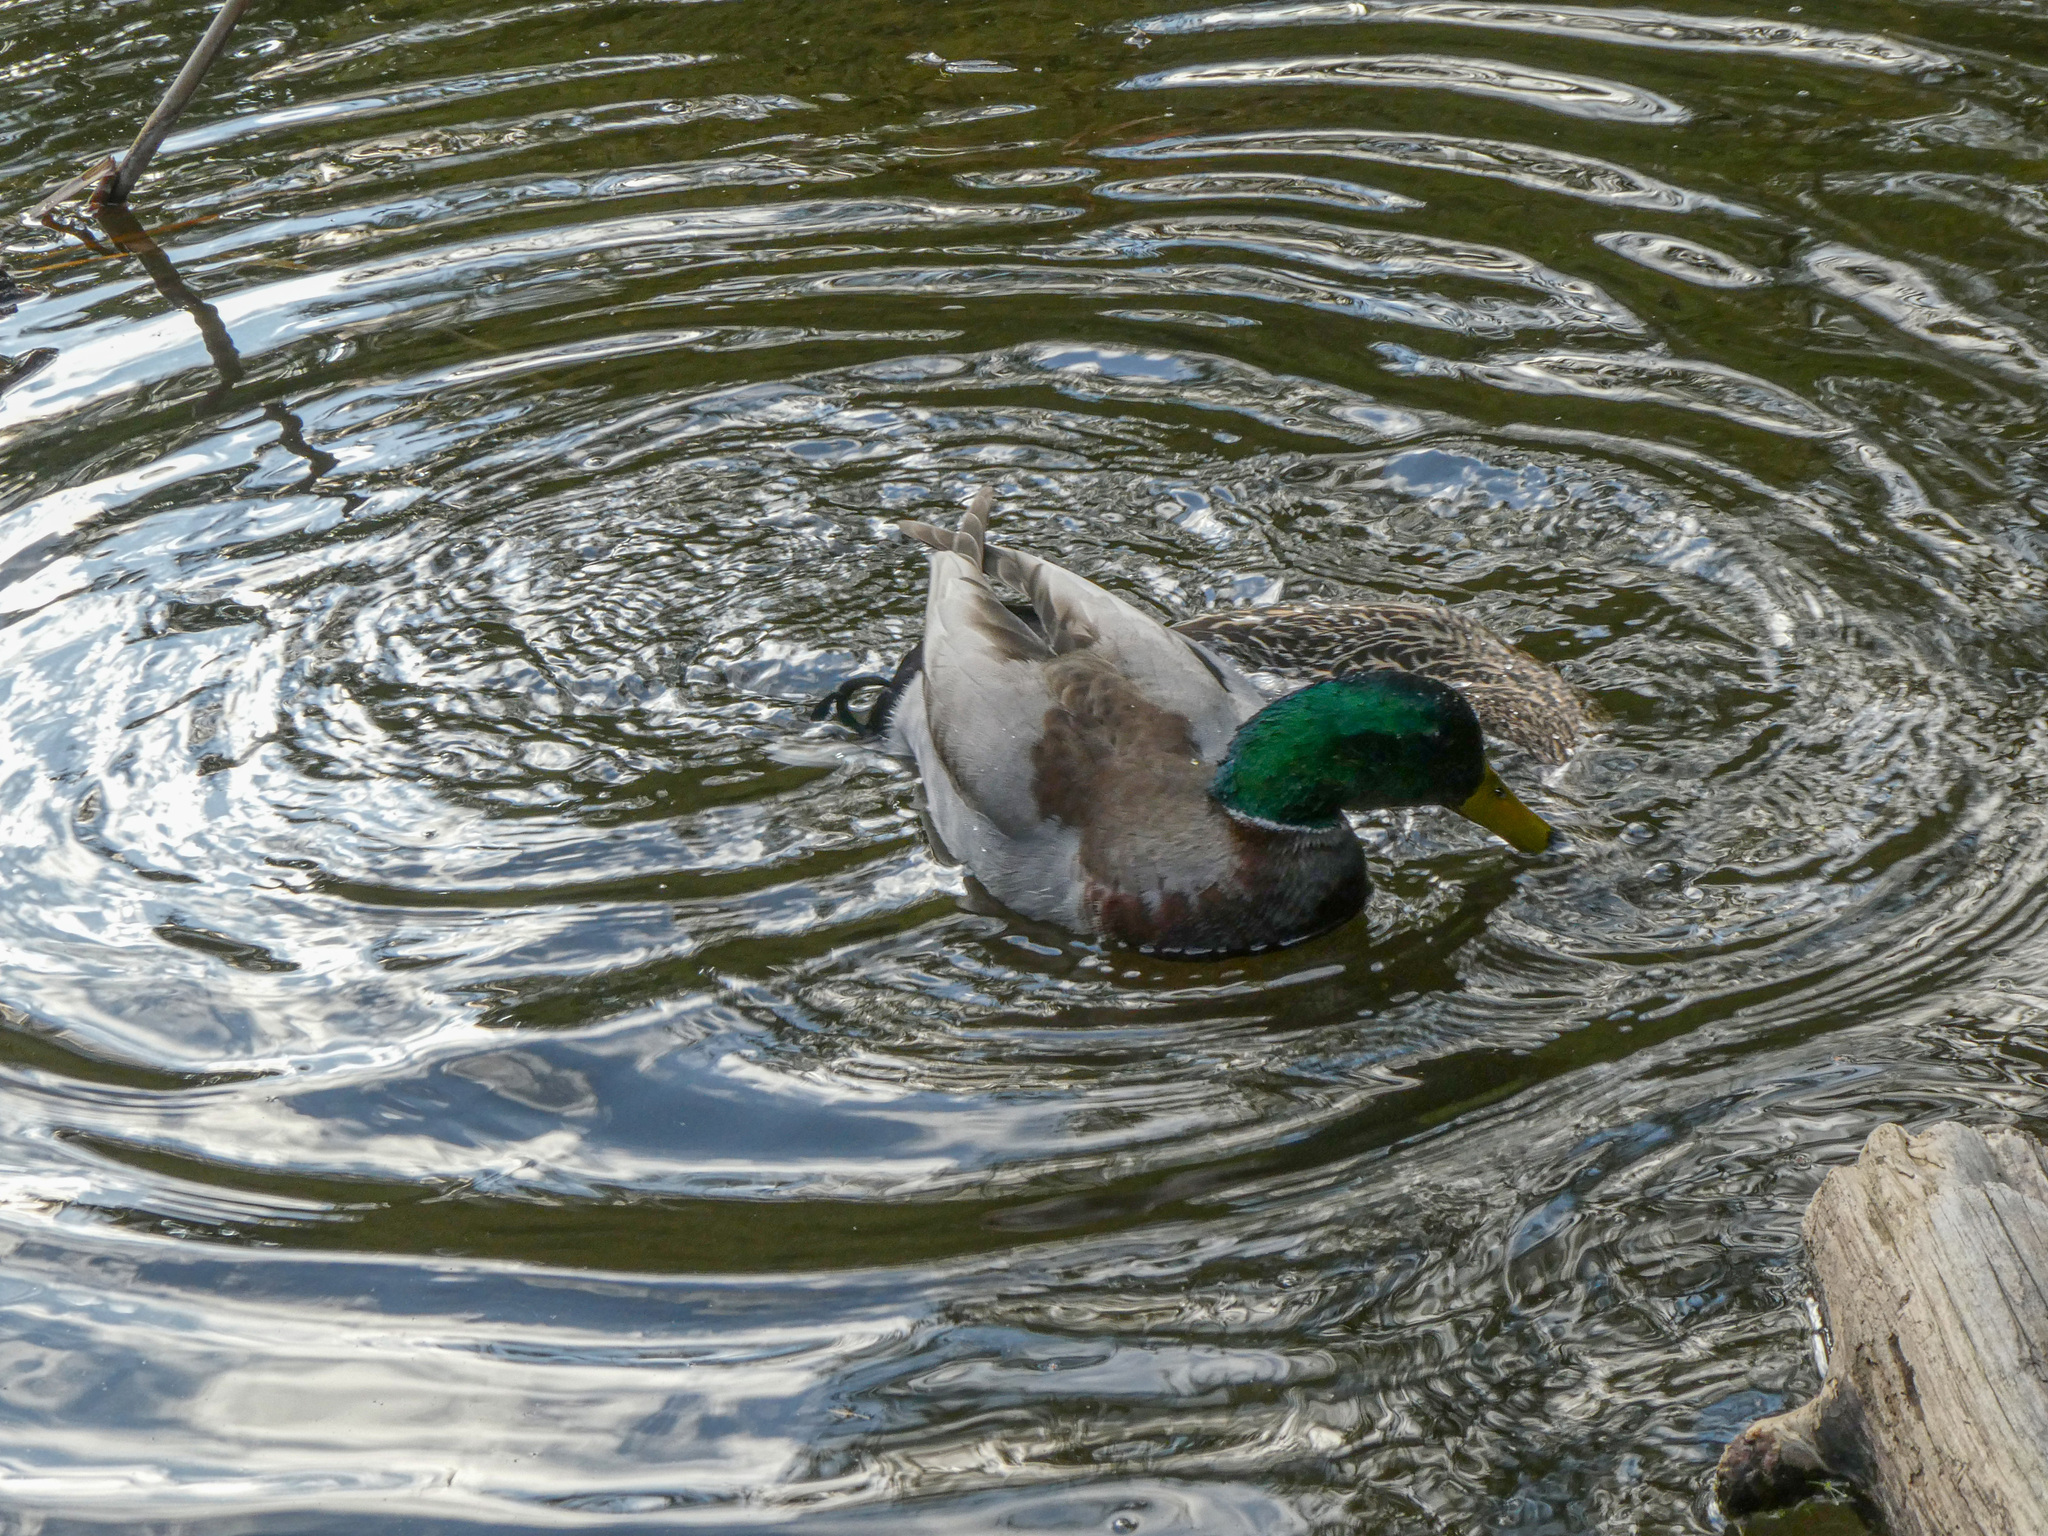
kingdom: Animalia
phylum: Chordata
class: Aves
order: Anseriformes
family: Anatidae
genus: Anas
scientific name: Anas platyrhynchos
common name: Mallard
